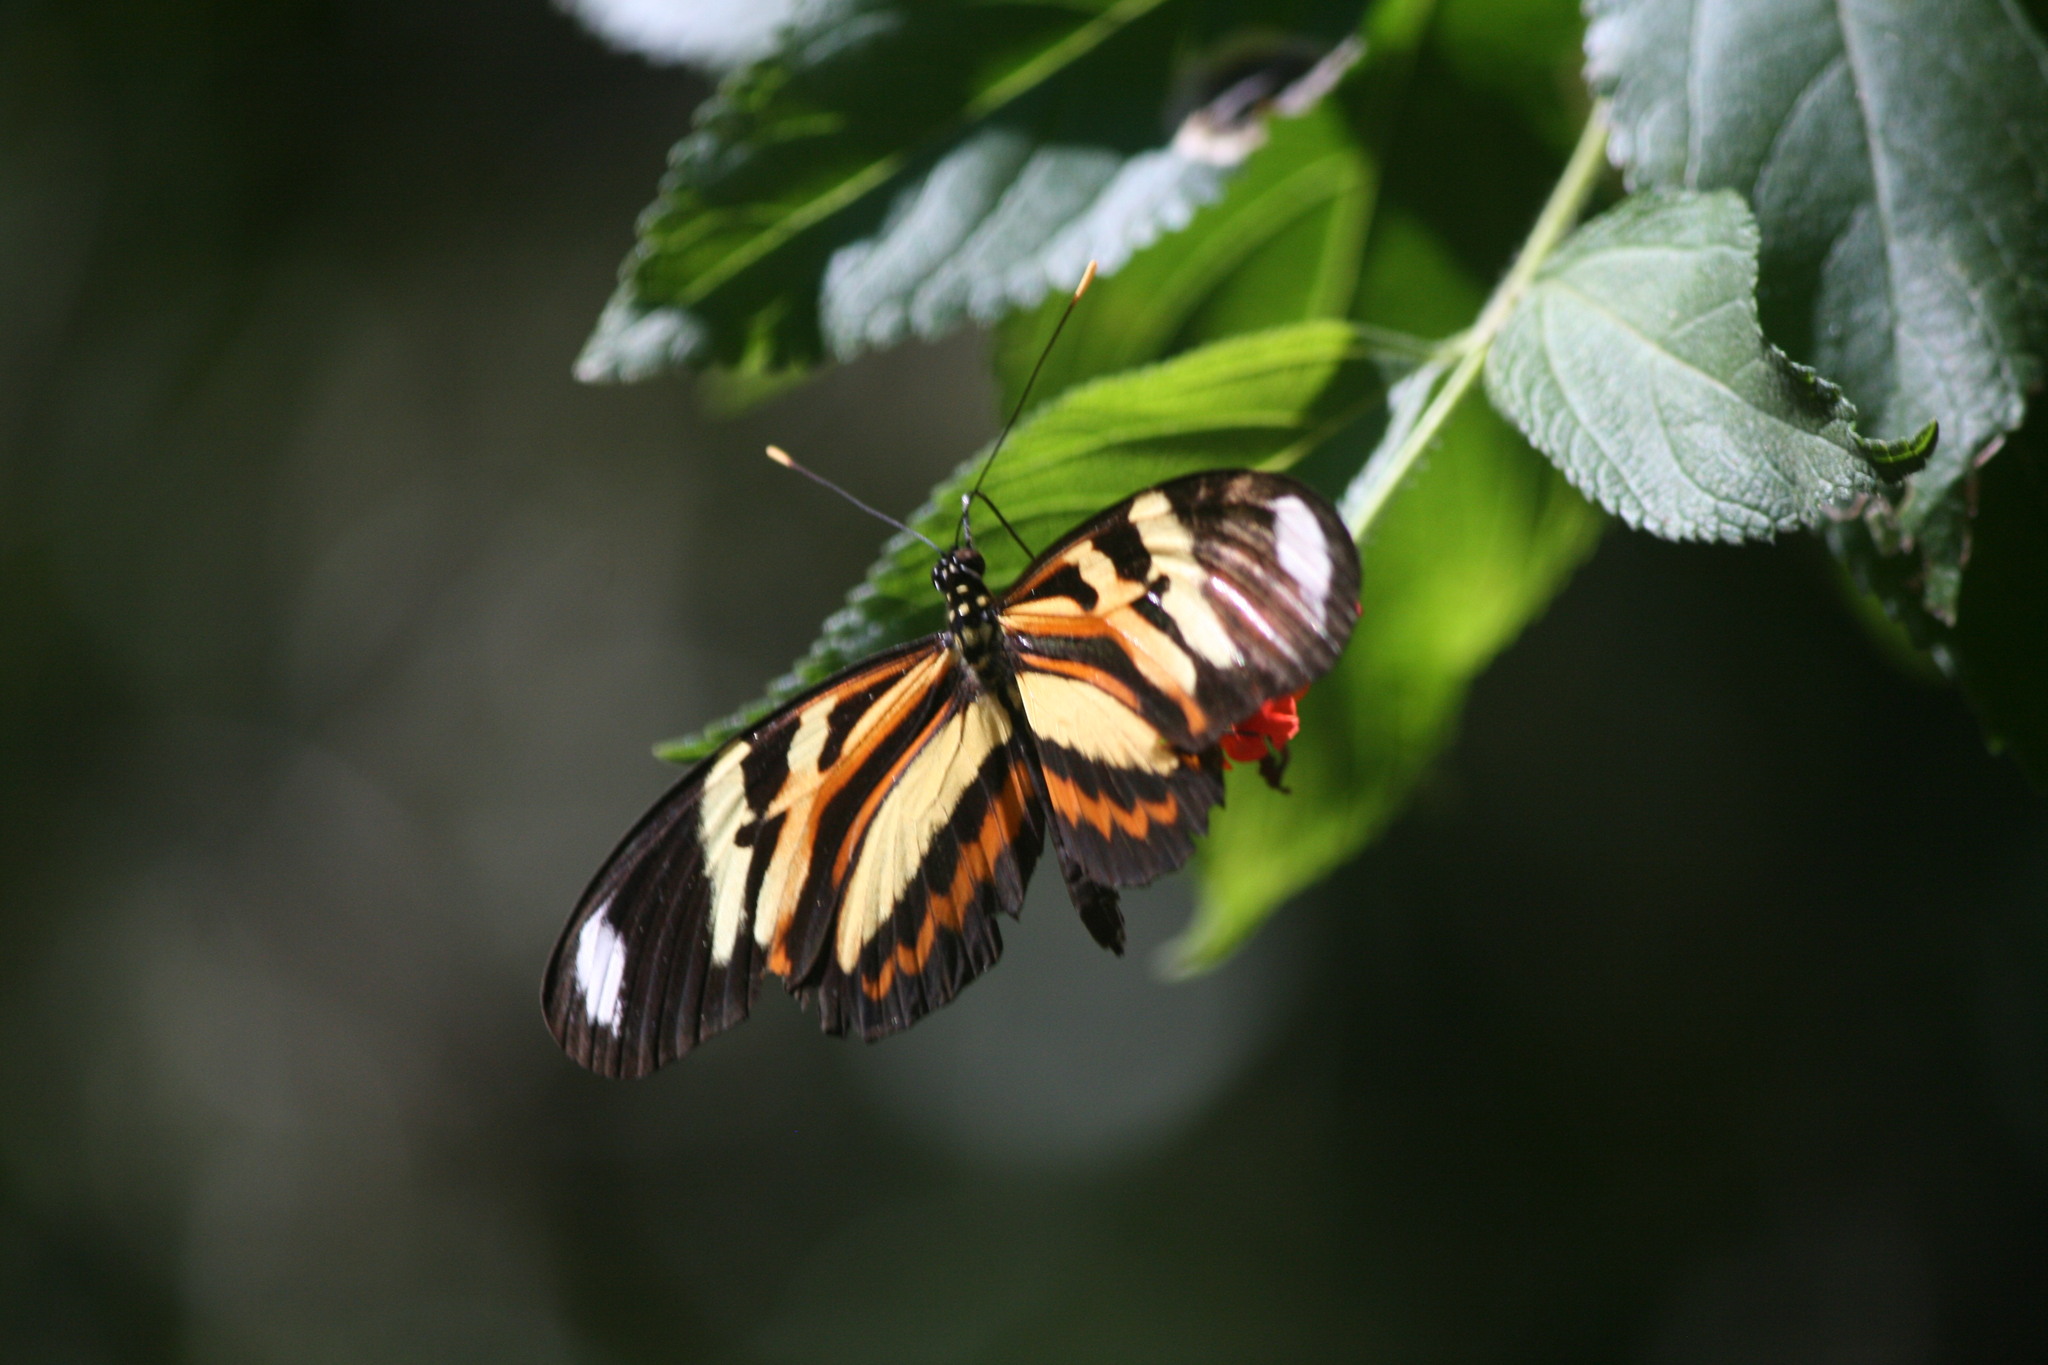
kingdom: Animalia
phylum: Arthropoda
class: Insecta
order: Lepidoptera
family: Nymphalidae
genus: Heliconius
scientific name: Heliconius ethilla
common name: Ethilia longwing
